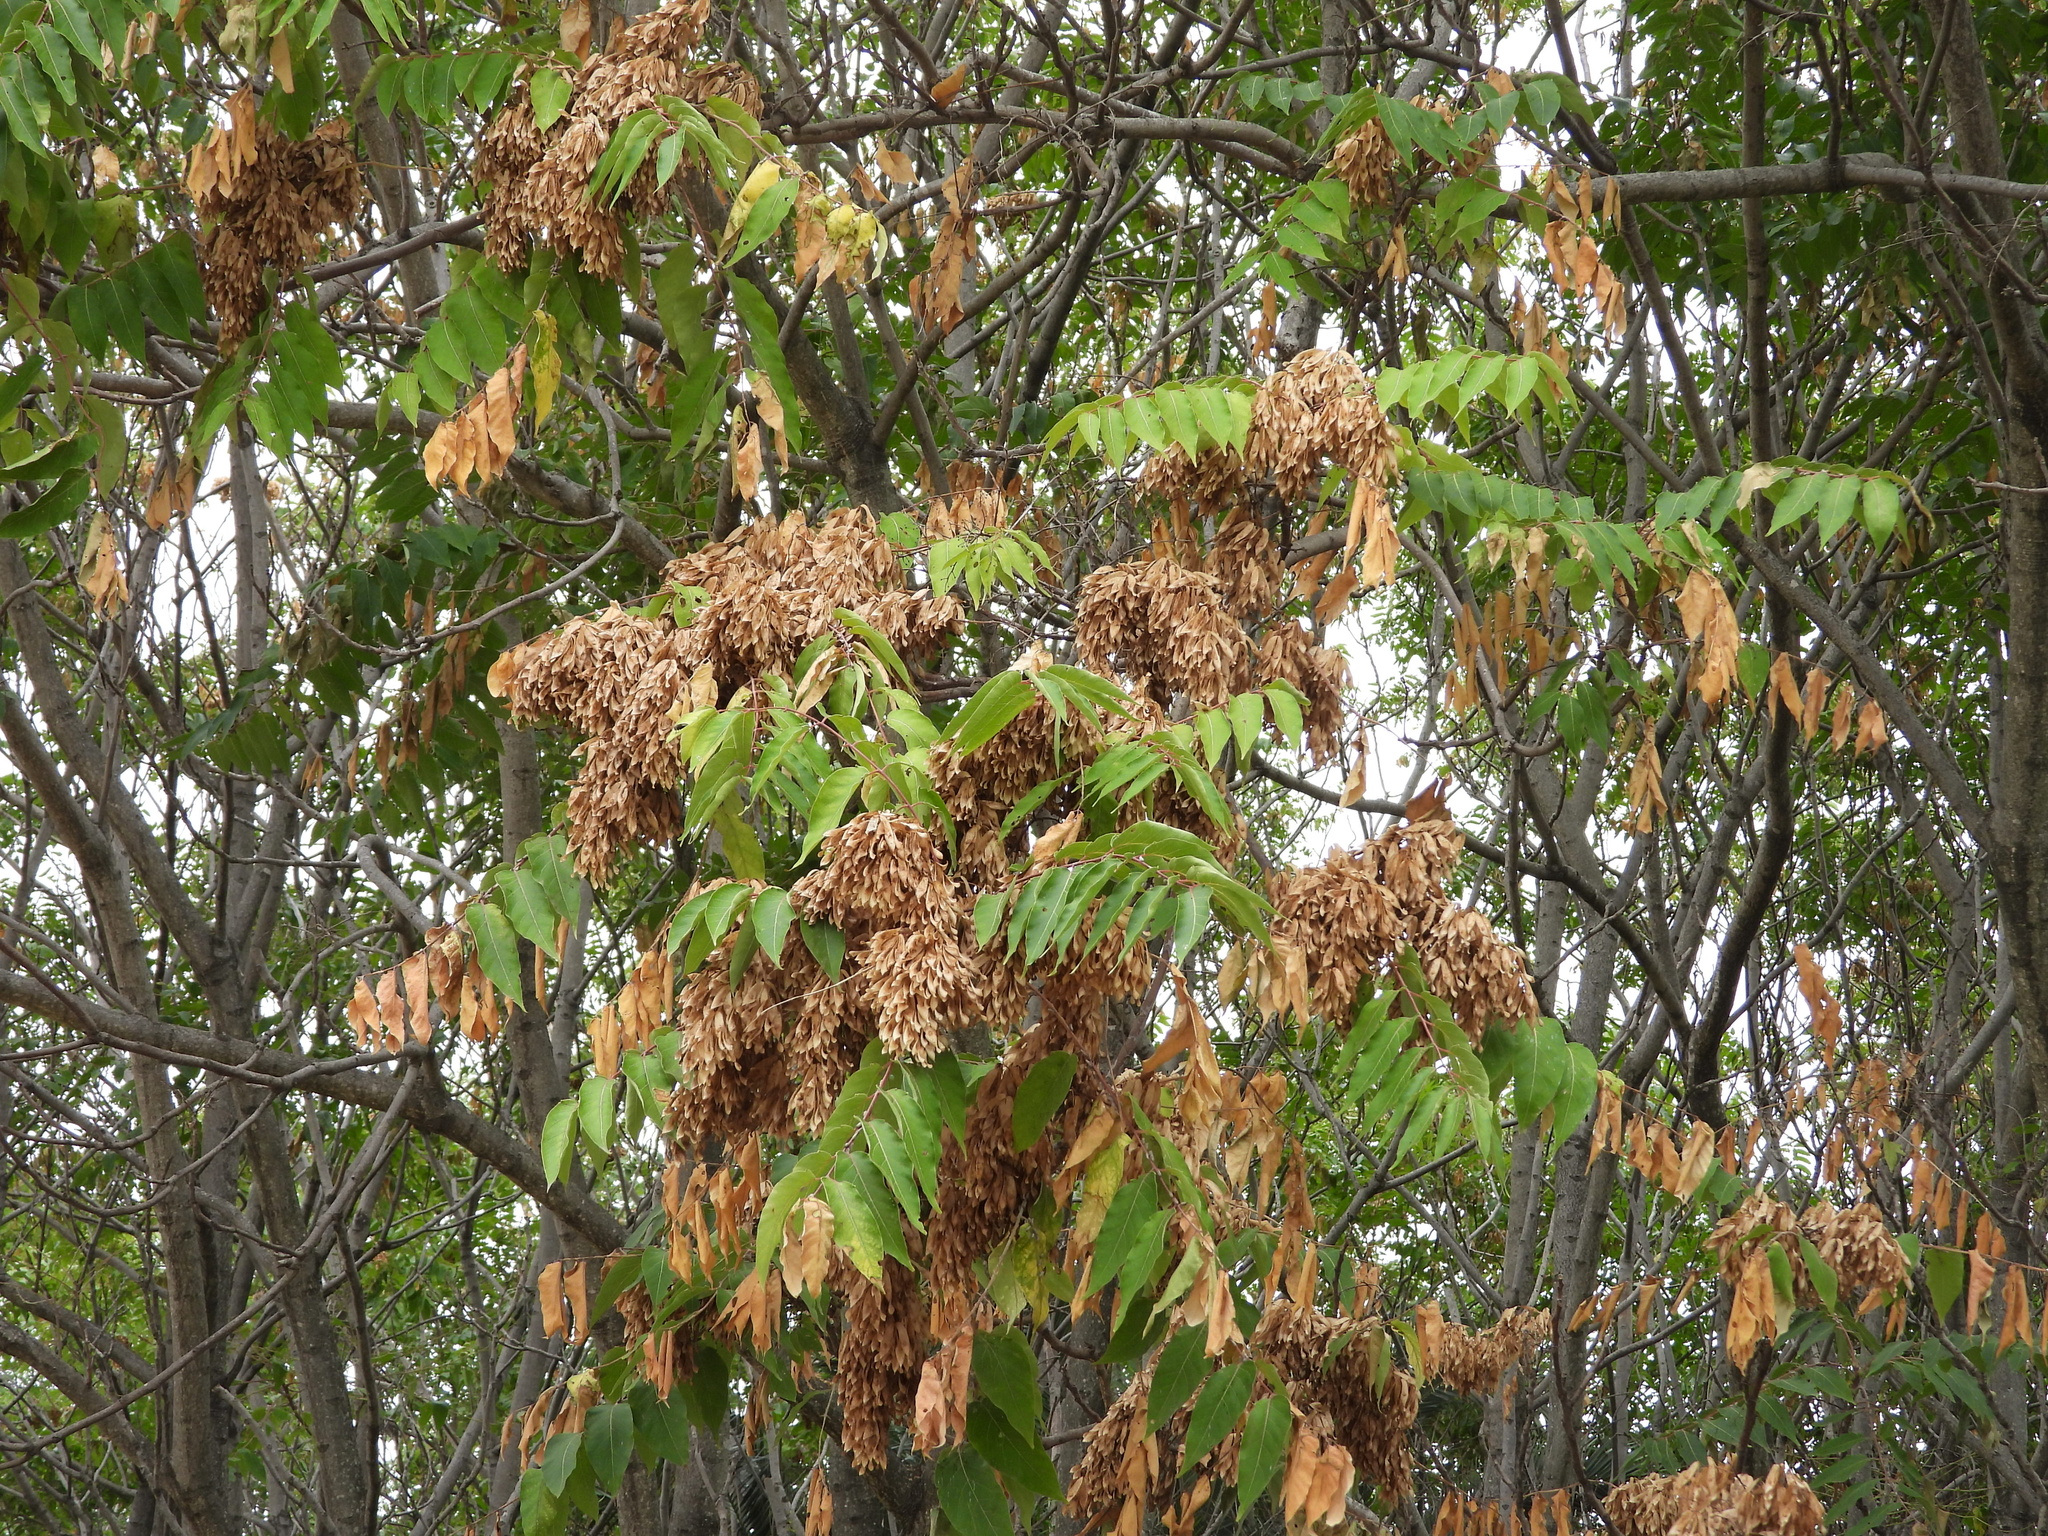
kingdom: Plantae
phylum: Tracheophyta
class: Magnoliopsida
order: Sapindales
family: Simaroubaceae
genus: Ailanthus
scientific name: Ailanthus altissima
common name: Tree-of-heaven
